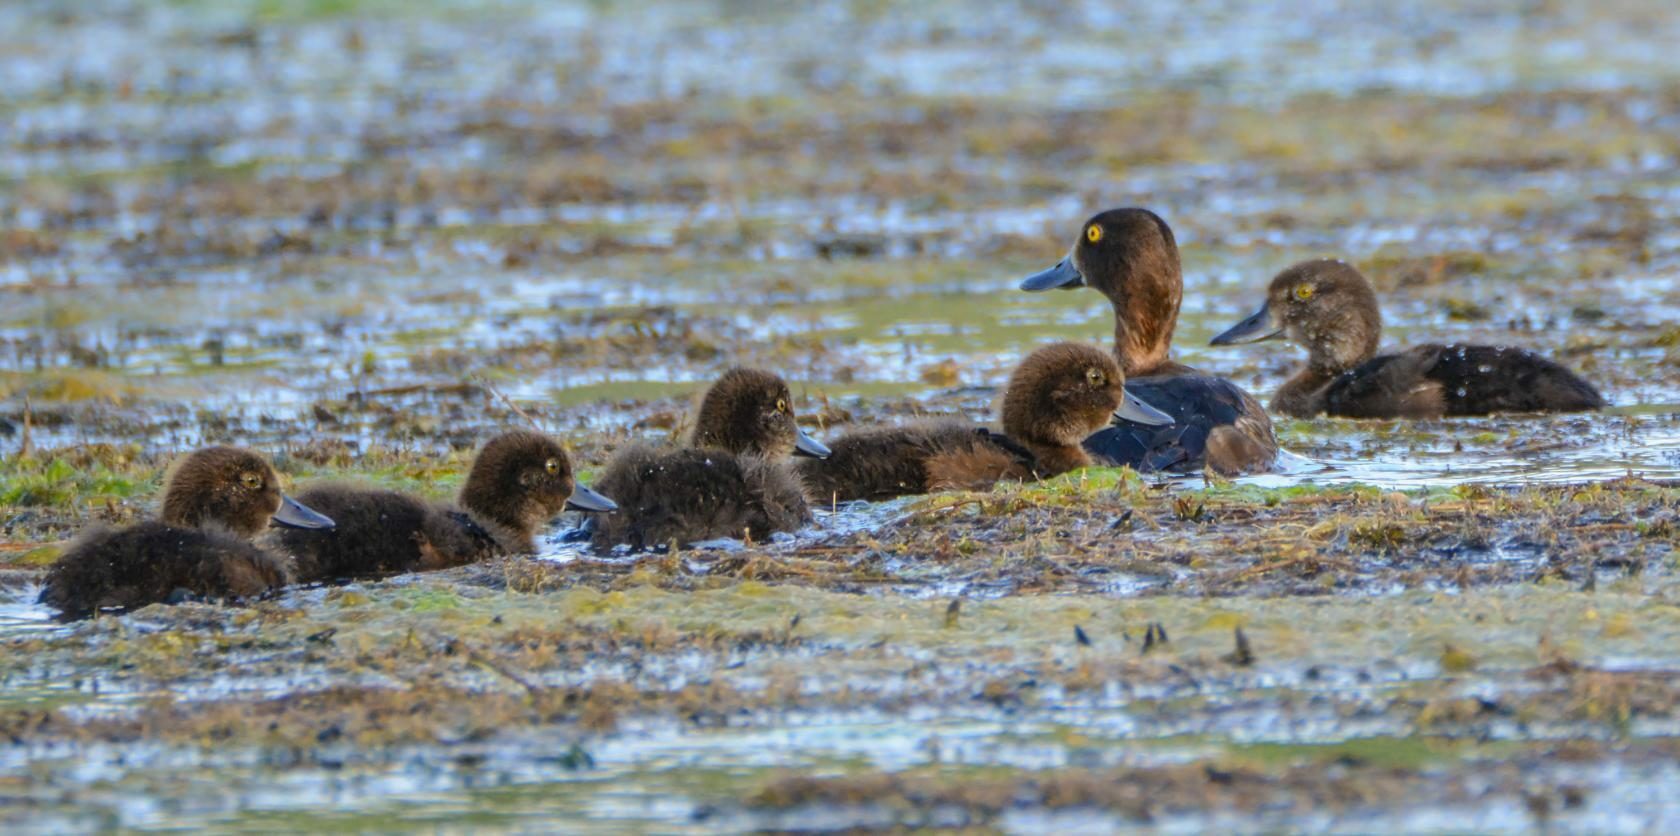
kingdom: Animalia
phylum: Chordata
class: Aves
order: Anseriformes
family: Anatidae
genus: Aythya
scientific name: Aythya fuligula
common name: Tufted duck
